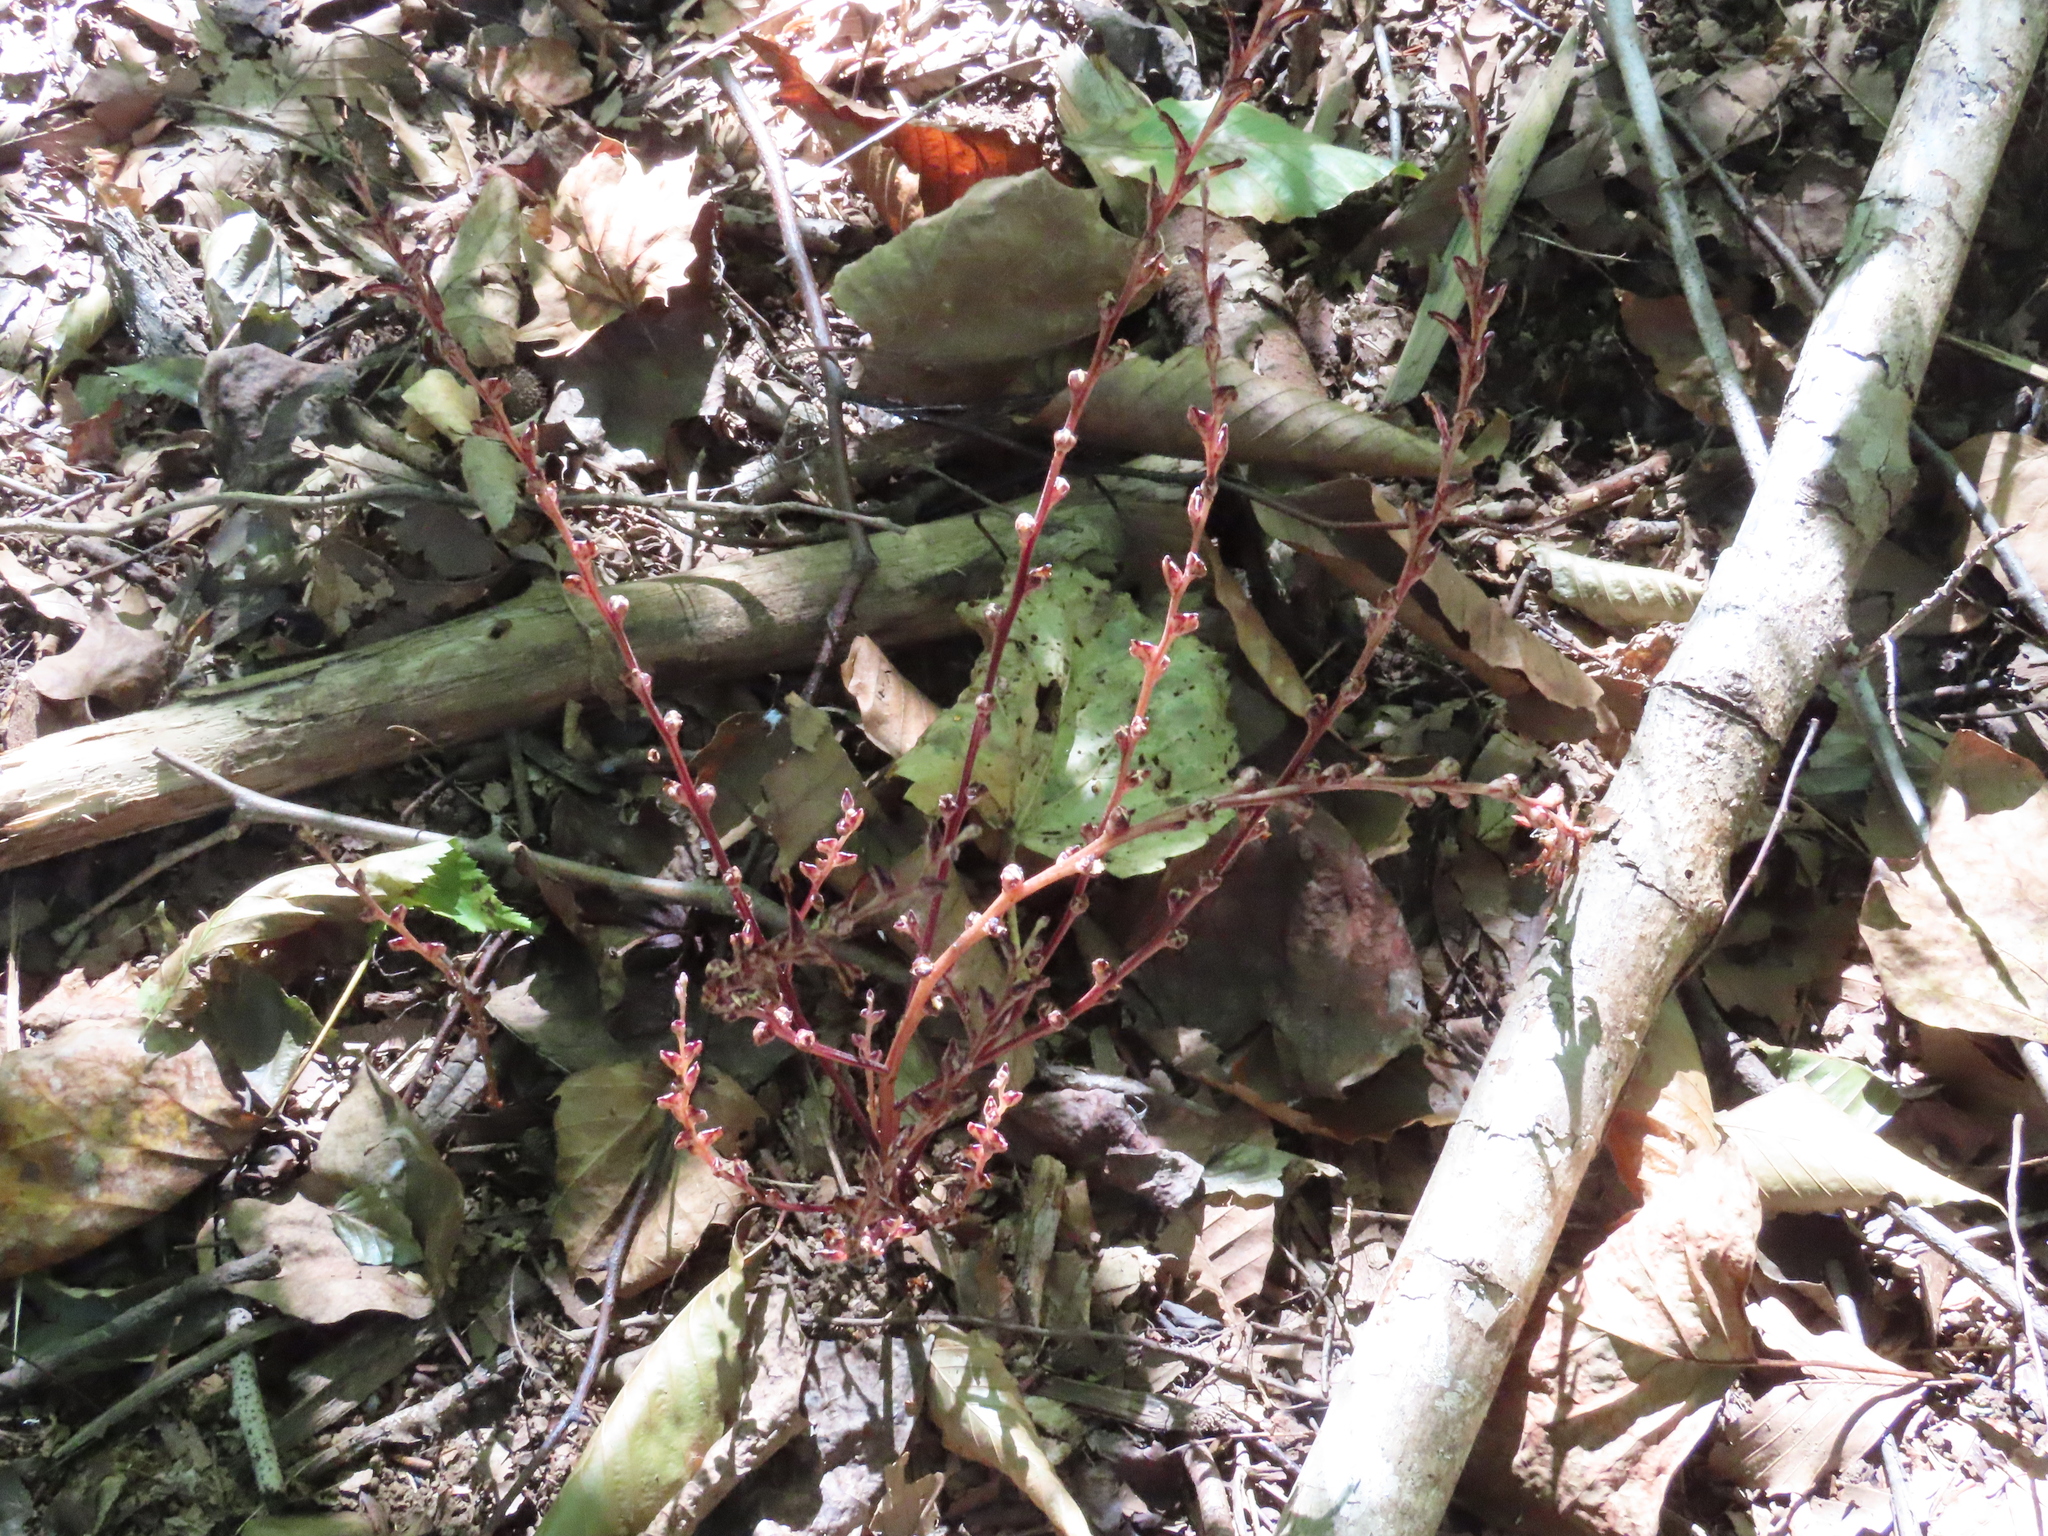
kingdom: Plantae
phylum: Tracheophyta
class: Magnoliopsida
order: Lamiales
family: Orobanchaceae
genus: Epifagus
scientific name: Epifagus virginiana
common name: Beechdrops
